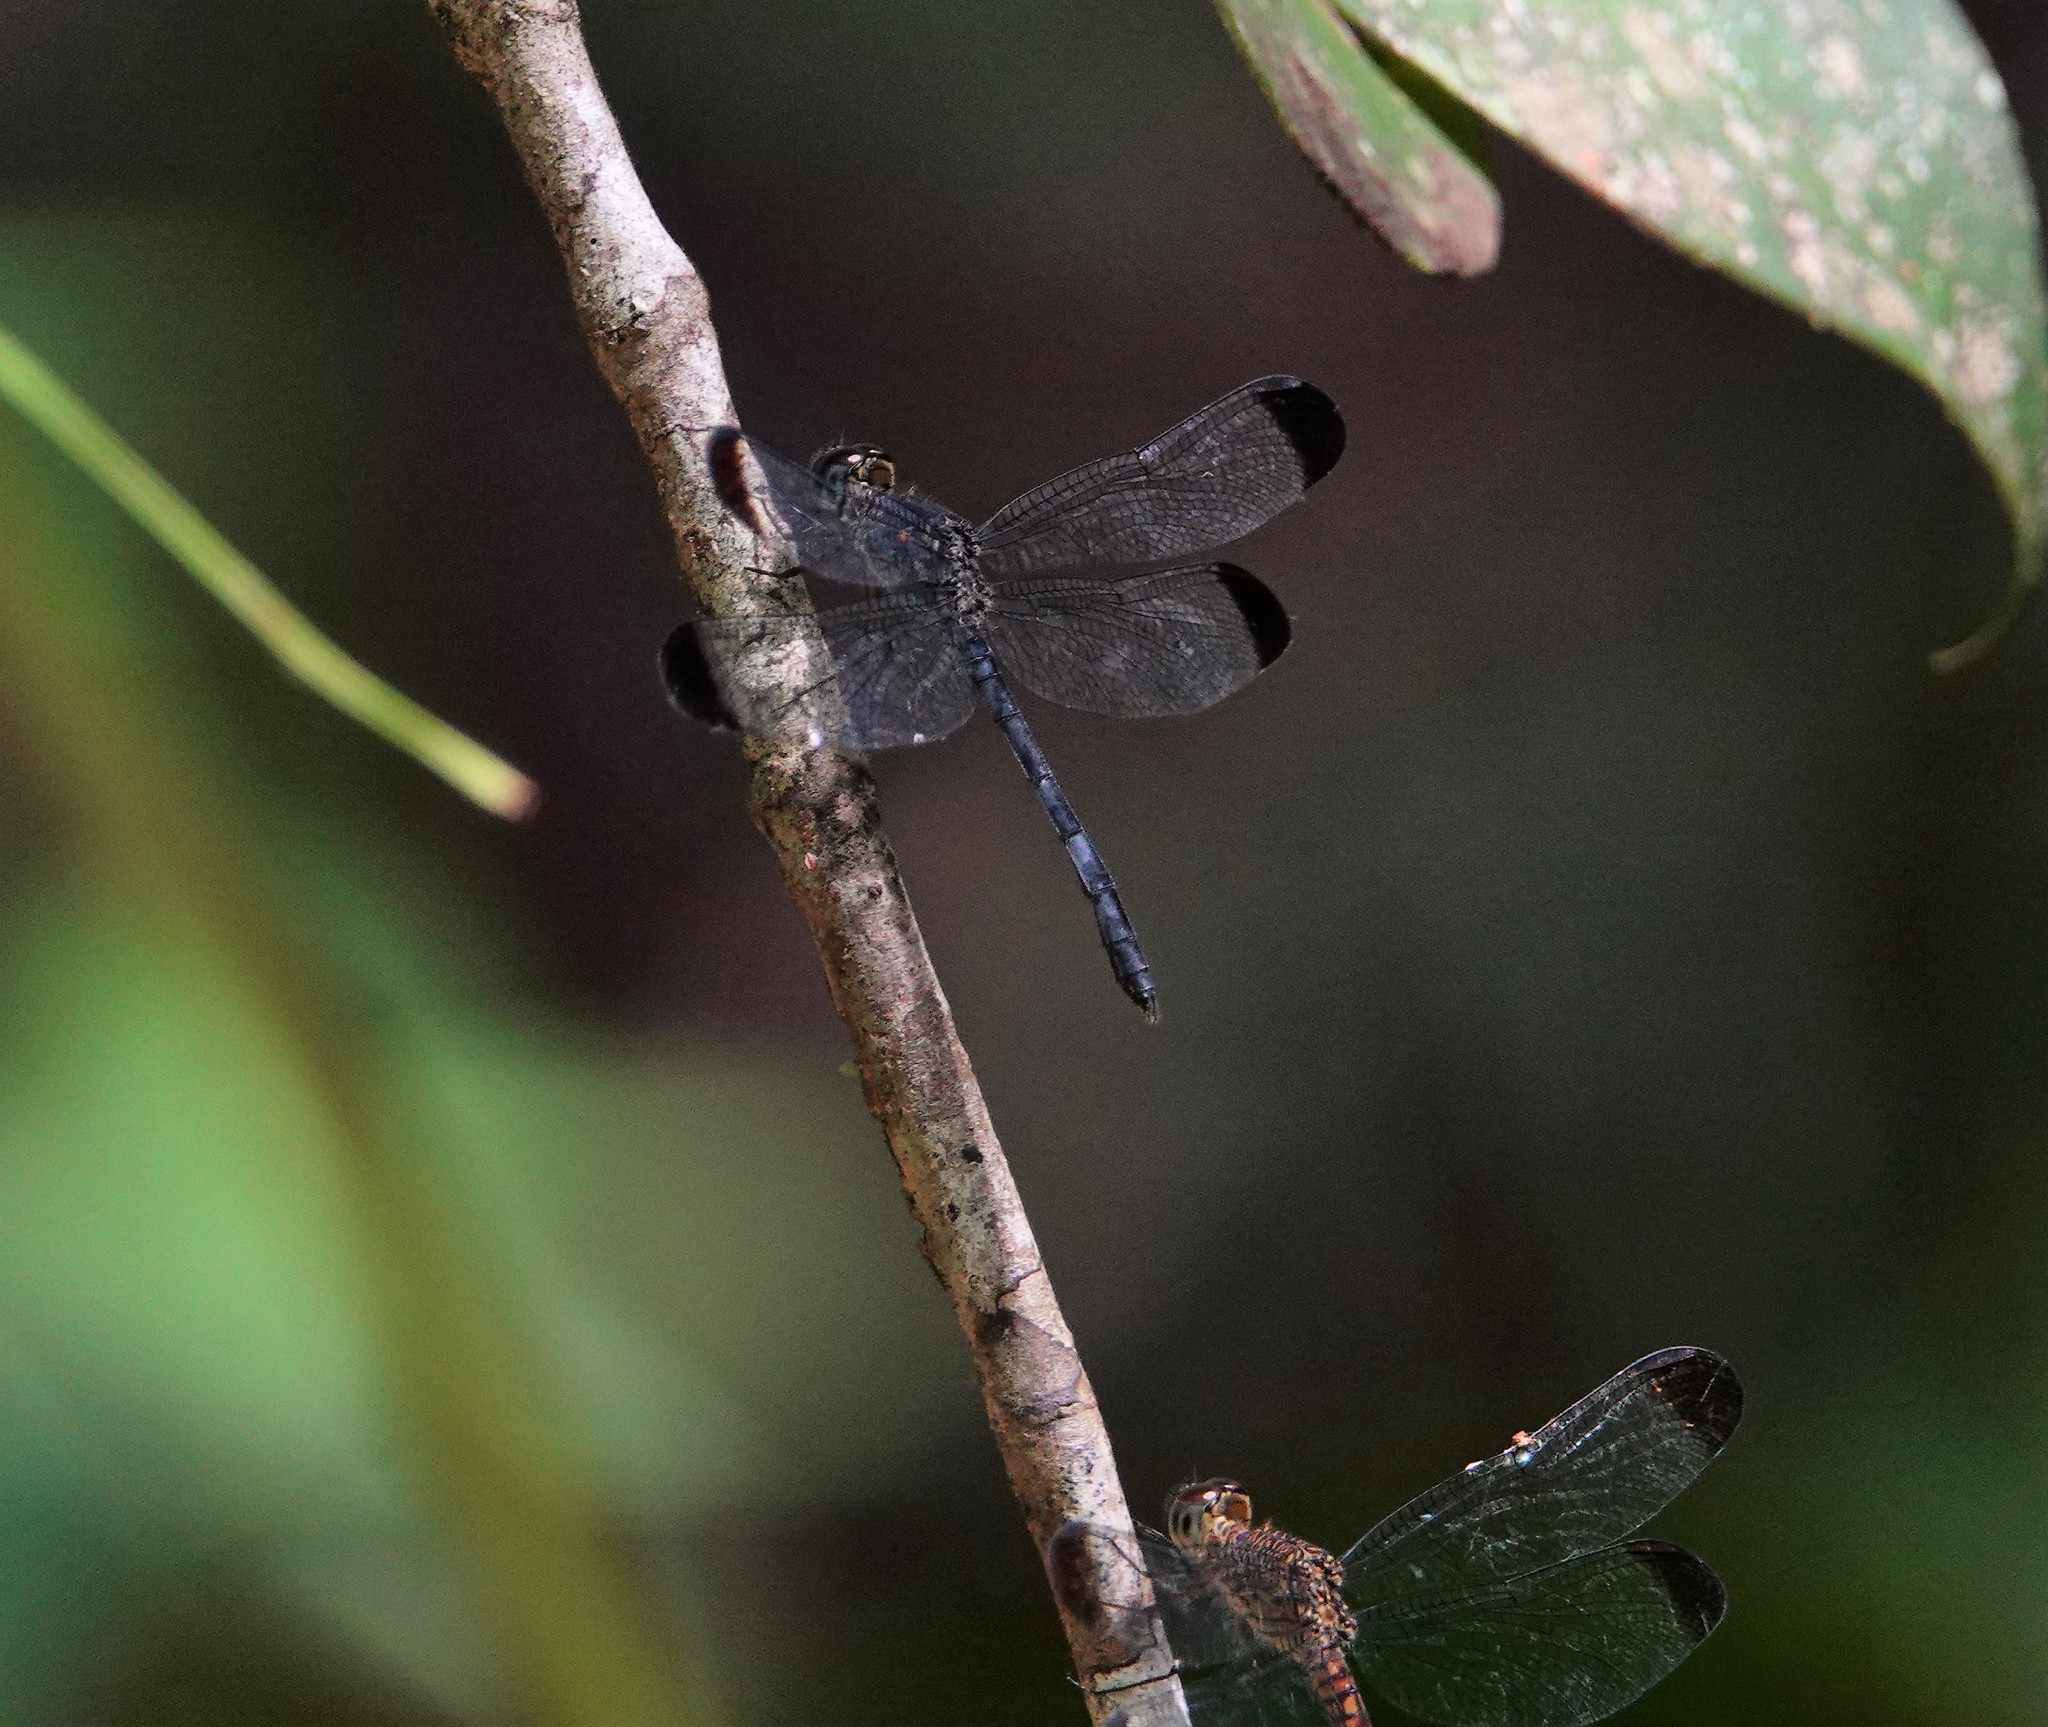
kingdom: Animalia
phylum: Arthropoda
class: Insecta
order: Odonata
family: Libellulidae
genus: Uracis
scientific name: Uracis imbuta
